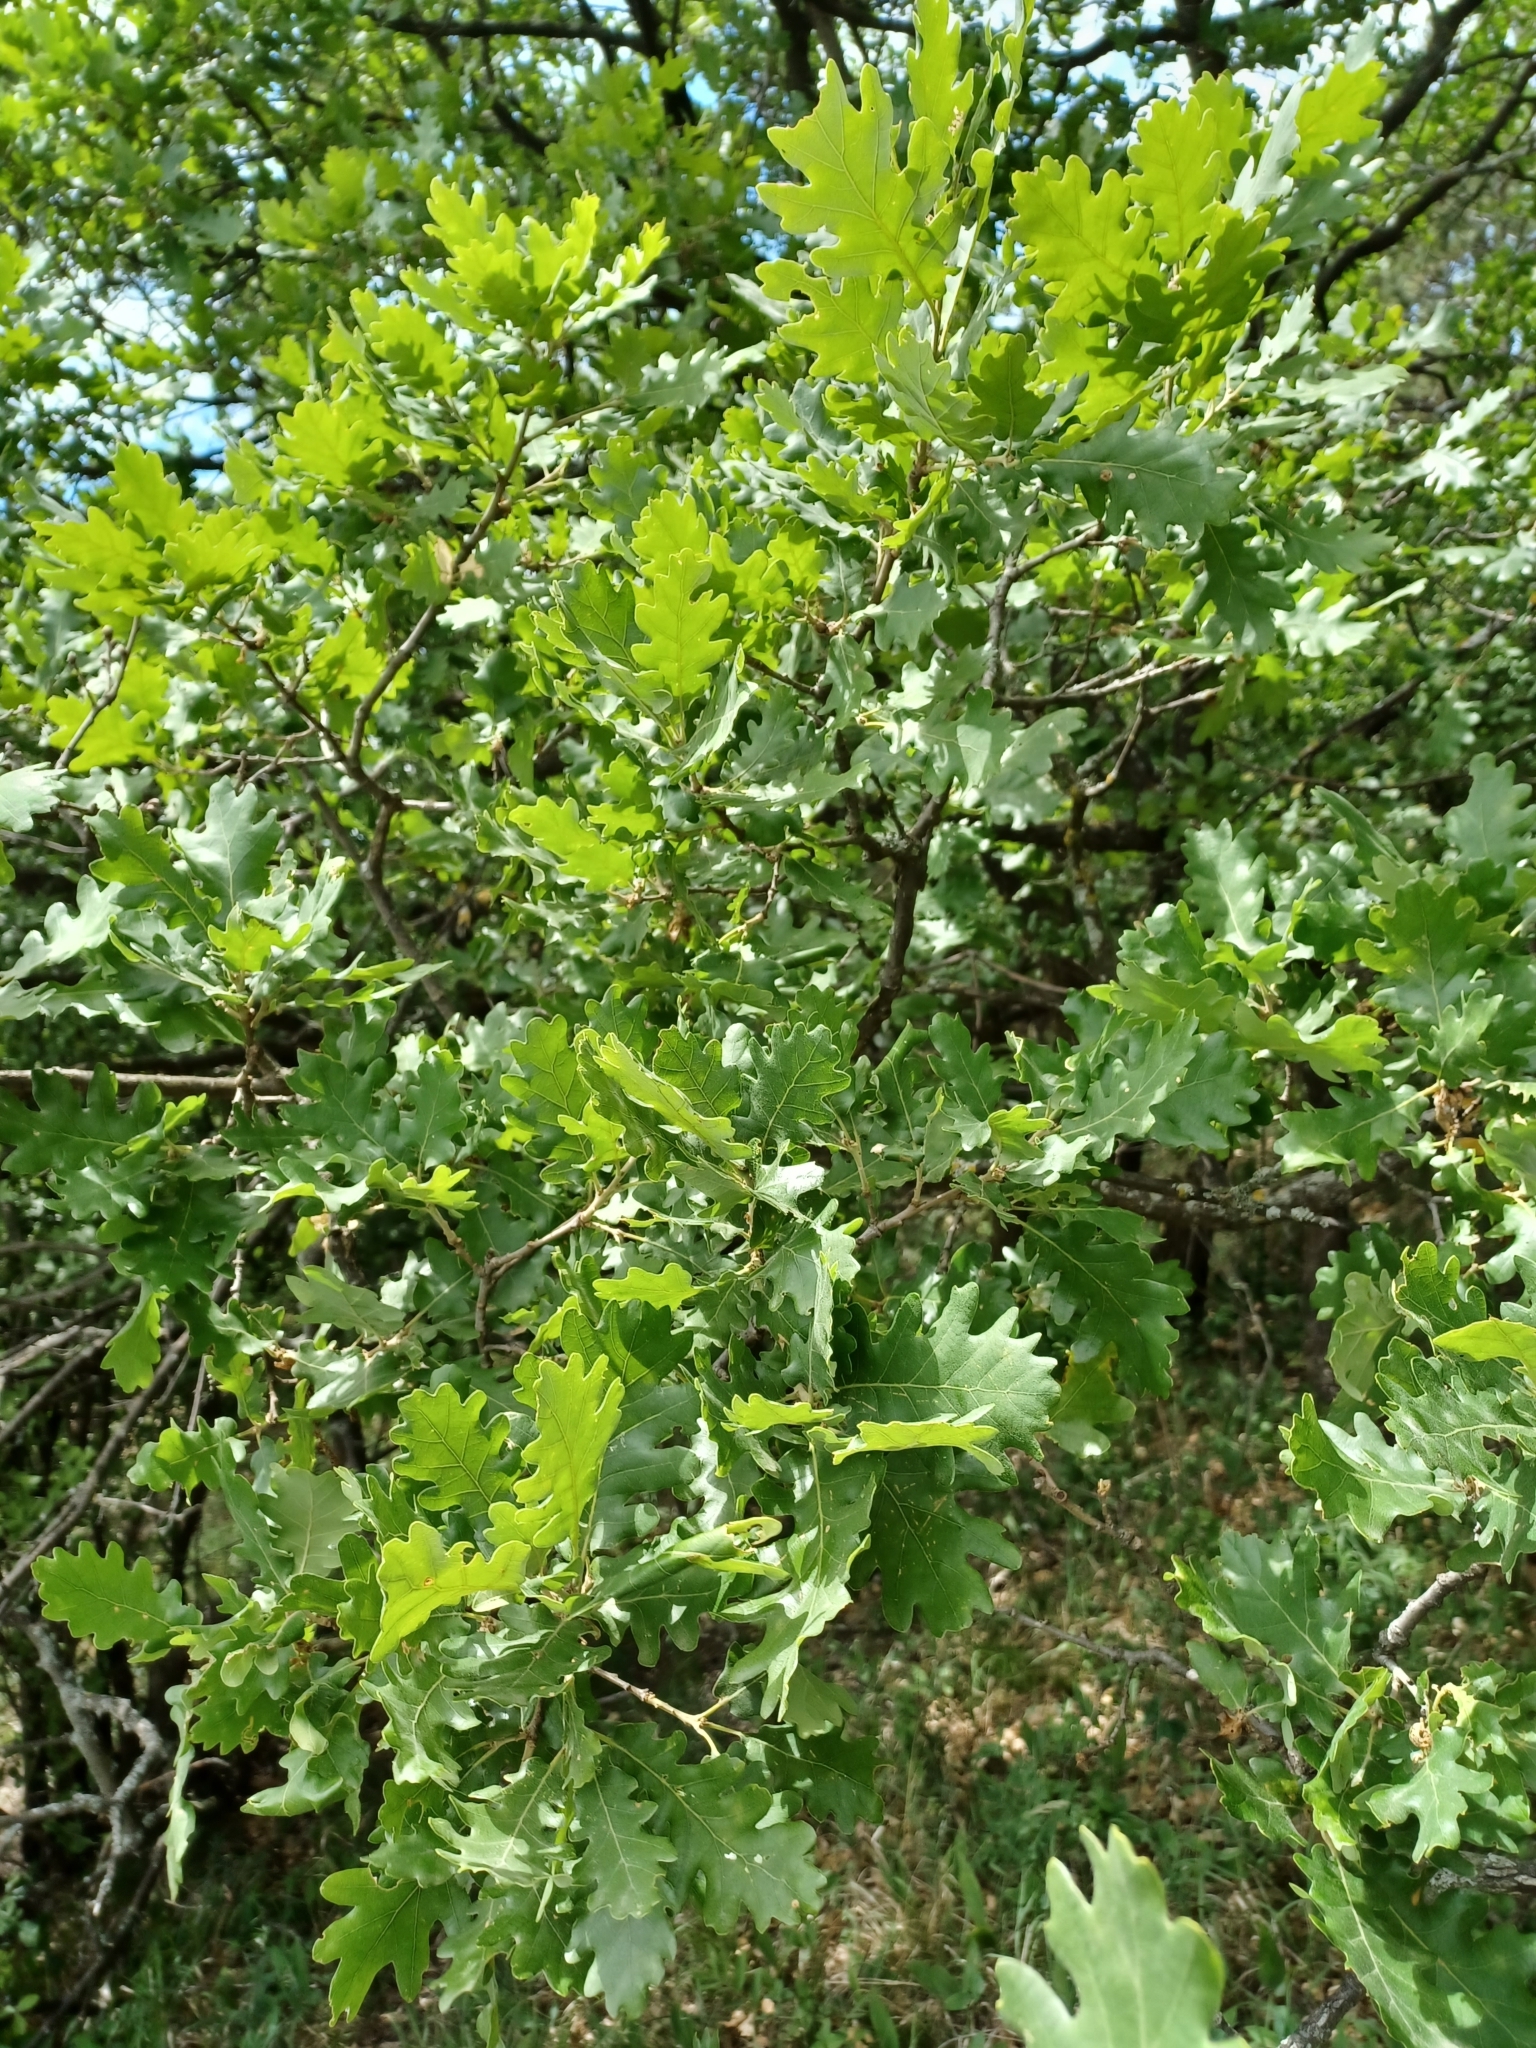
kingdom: Plantae
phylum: Tracheophyta
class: Magnoliopsida
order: Fagales
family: Fagaceae
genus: Quercus
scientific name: Quercus pubescens
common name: Downy oak
